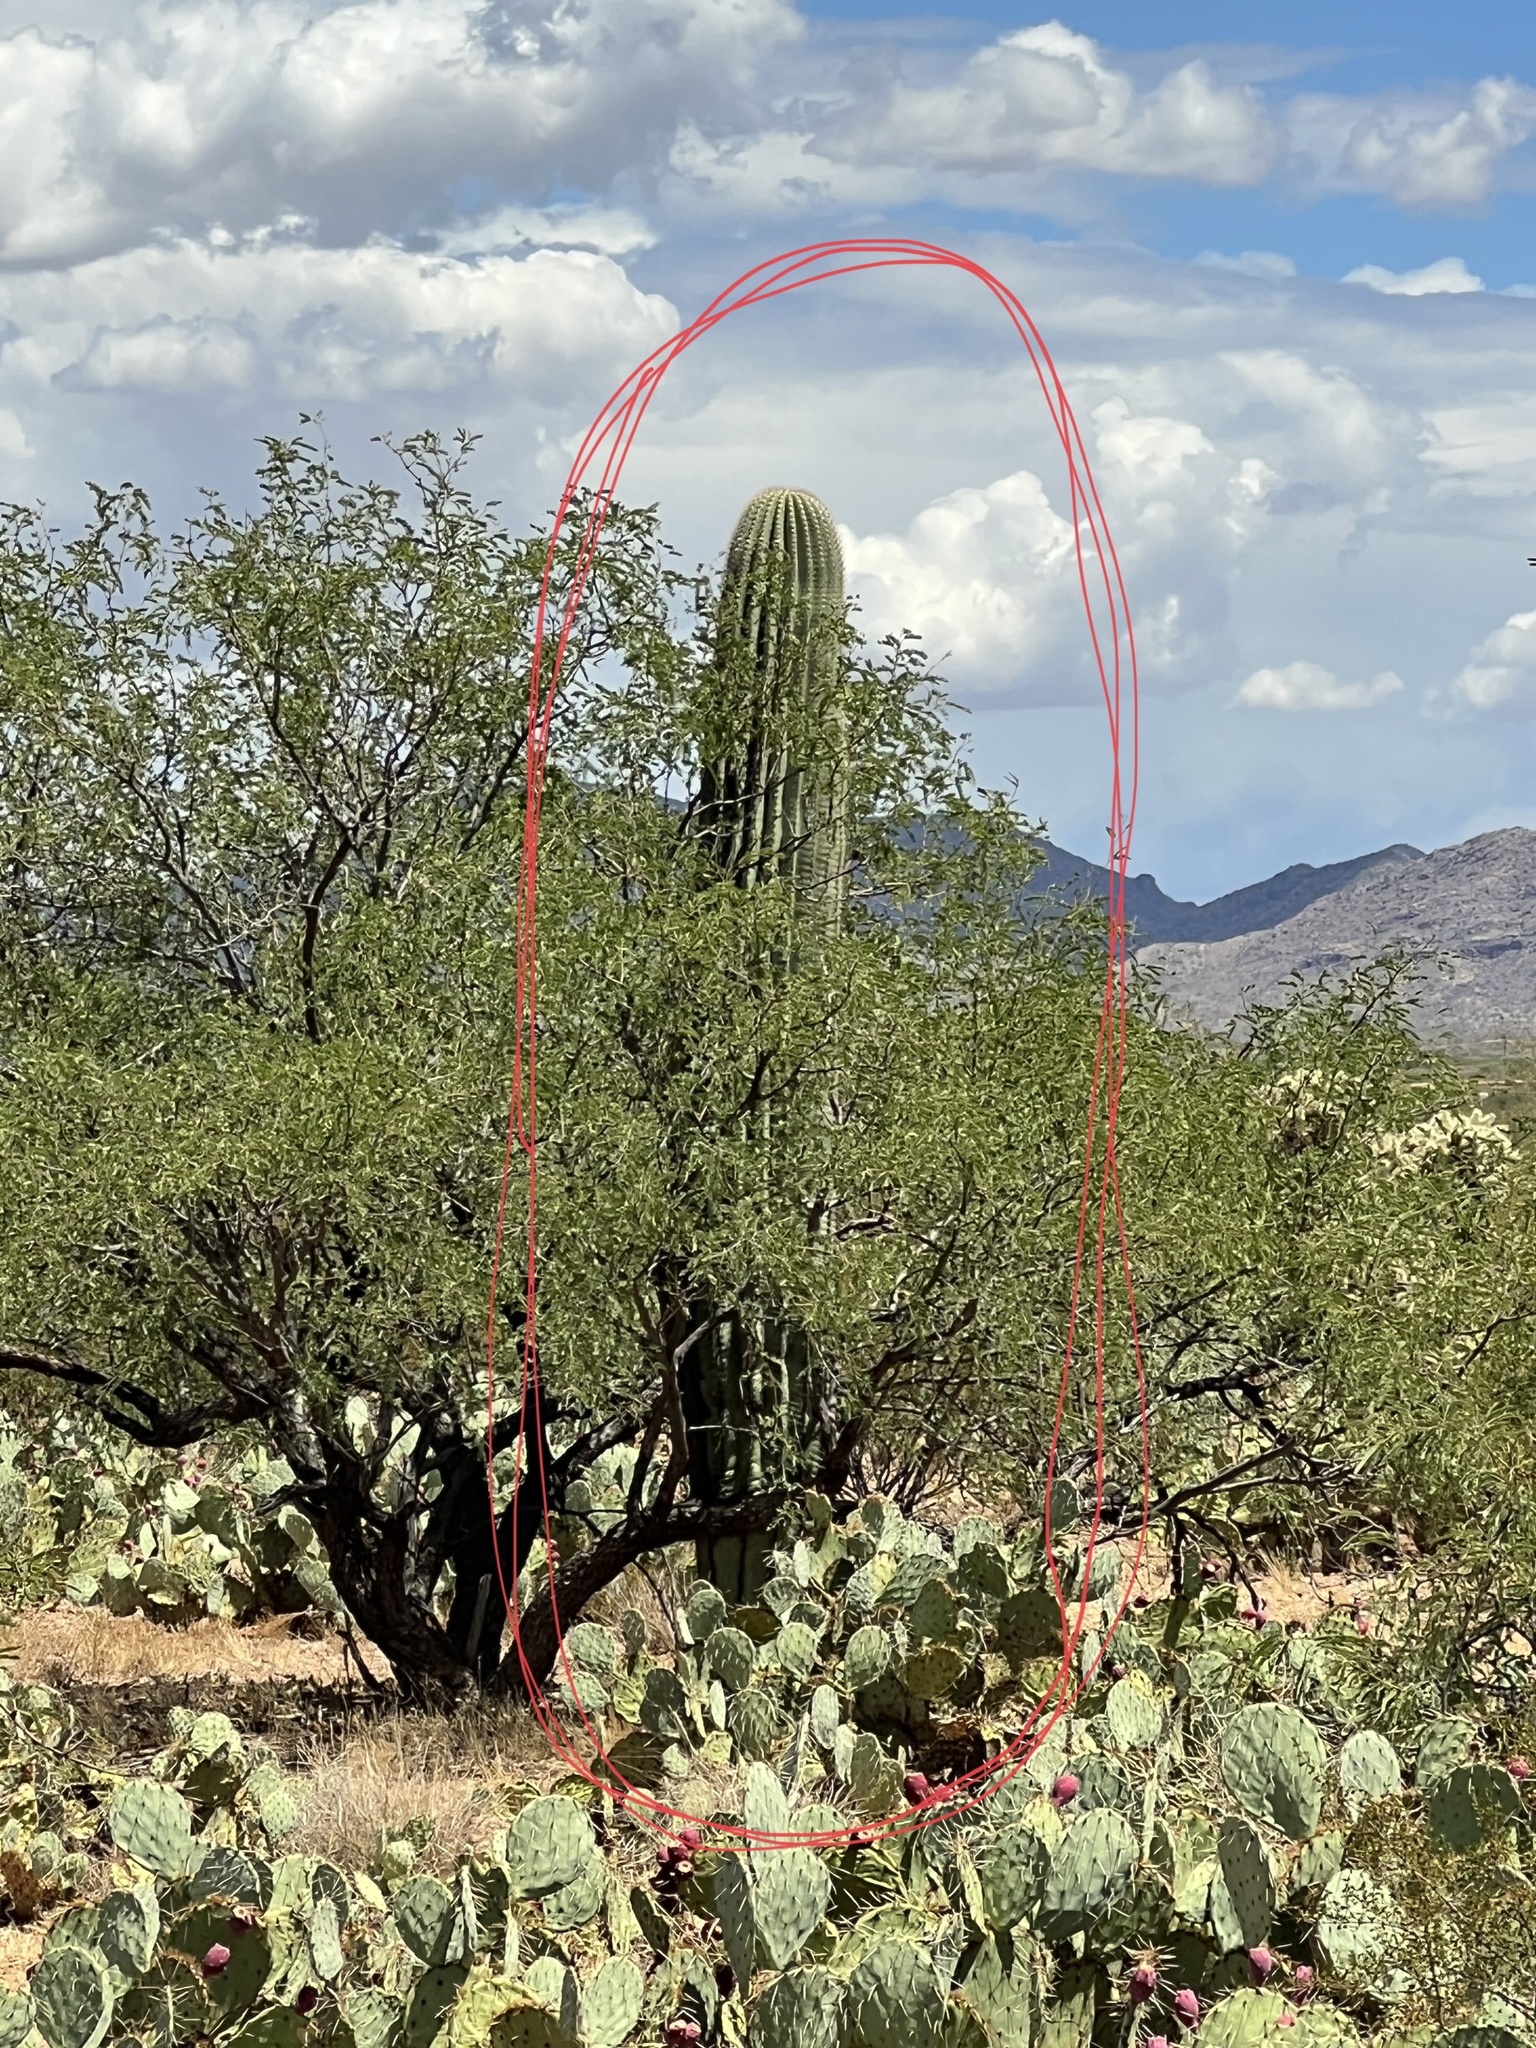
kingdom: Plantae
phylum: Tracheophyta
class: Magnoliopsida
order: Caryophyllales
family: Cactaceae
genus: Carnegiea
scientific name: Carnegiea gigantea
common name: Saguaro
